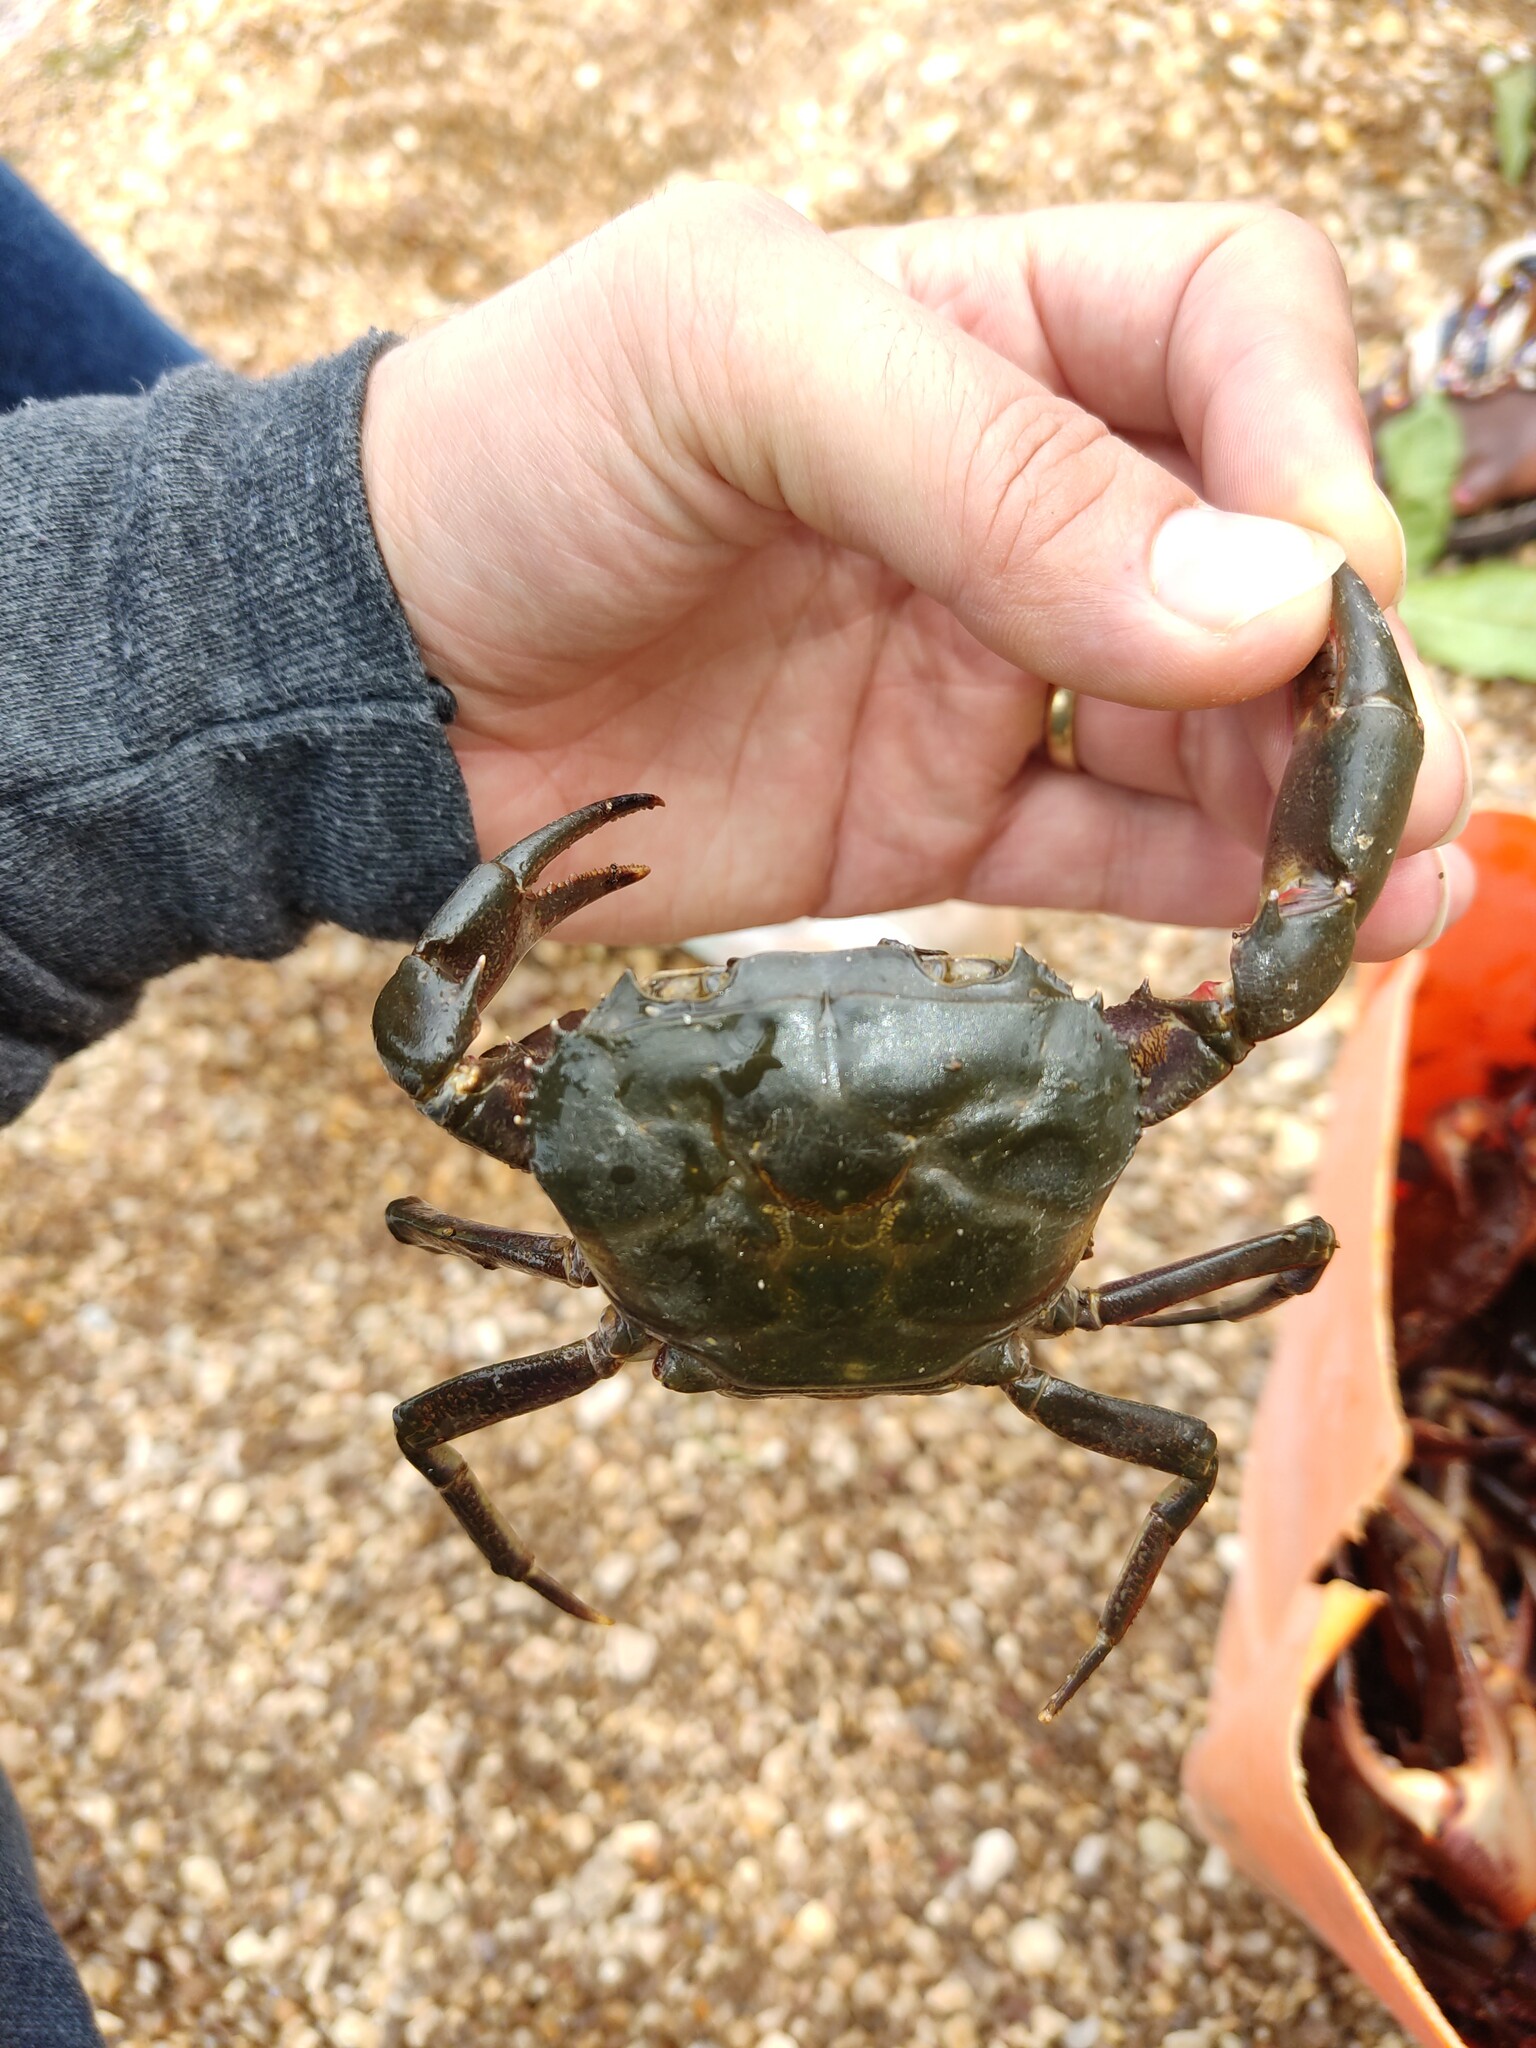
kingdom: Animalia
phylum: Arthropoda
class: Malacostraca
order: Decapoda
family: Potamonautidae
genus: Acanthothelphusa
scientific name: Acanthothelphusa niloticus
